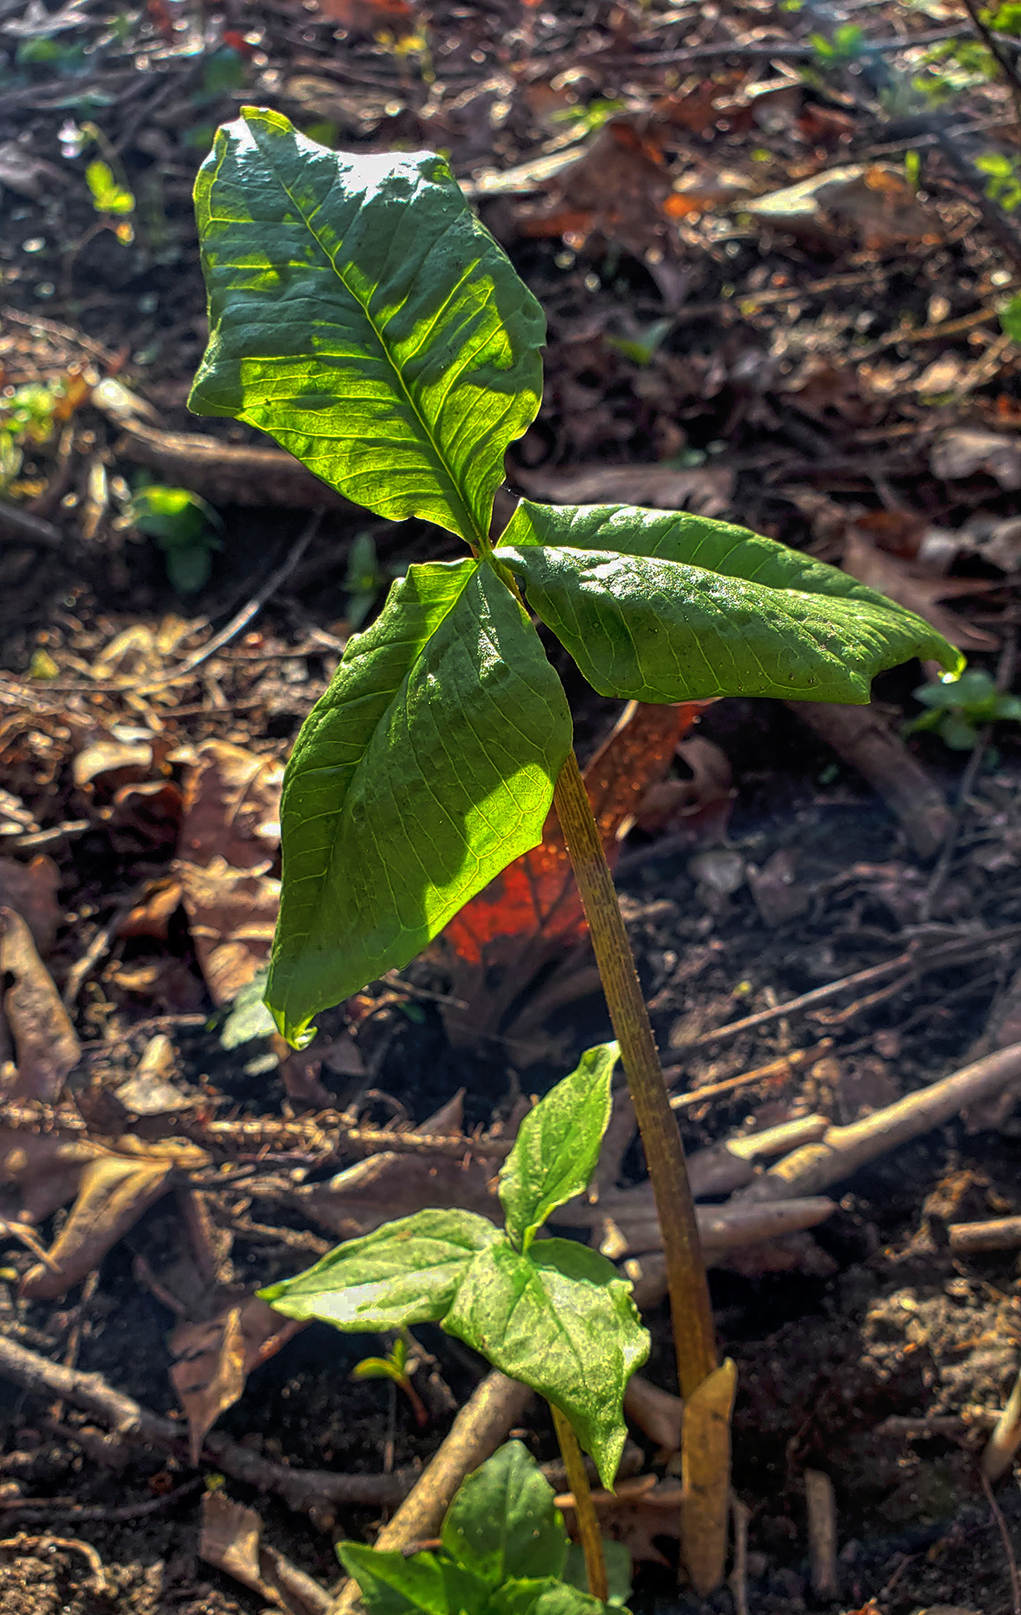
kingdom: Plantae
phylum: Tracheophyta
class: Liliopsida
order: Alismatales
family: Araceae
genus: Arisaema
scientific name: Arisaema triphyllum
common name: Jack-in-the-pulpit
